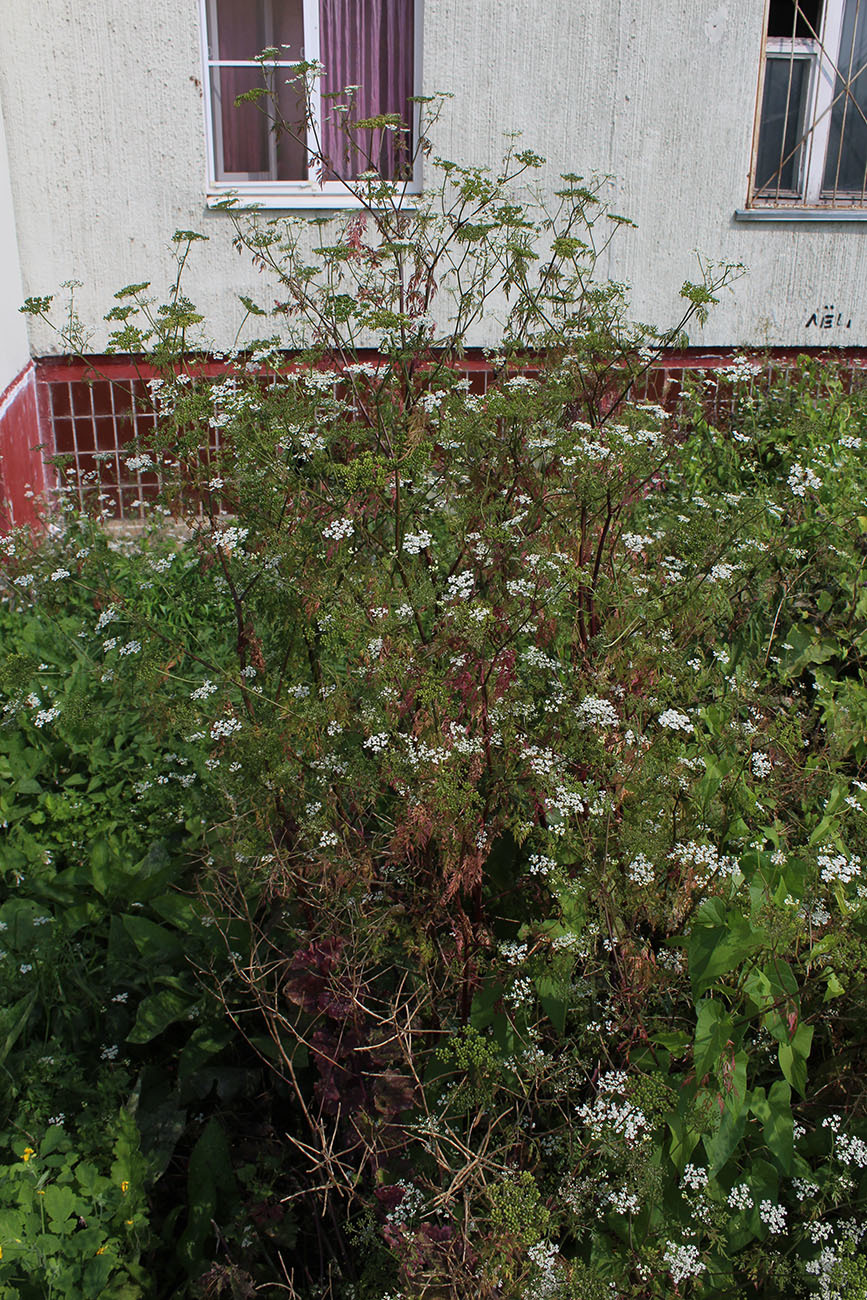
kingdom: Plantae
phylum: Tracheophyta
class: Magnoliopsida
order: Apiales
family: Apiaceae
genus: Aethusa
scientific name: Aethusa cynapium
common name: Fool's parsley
